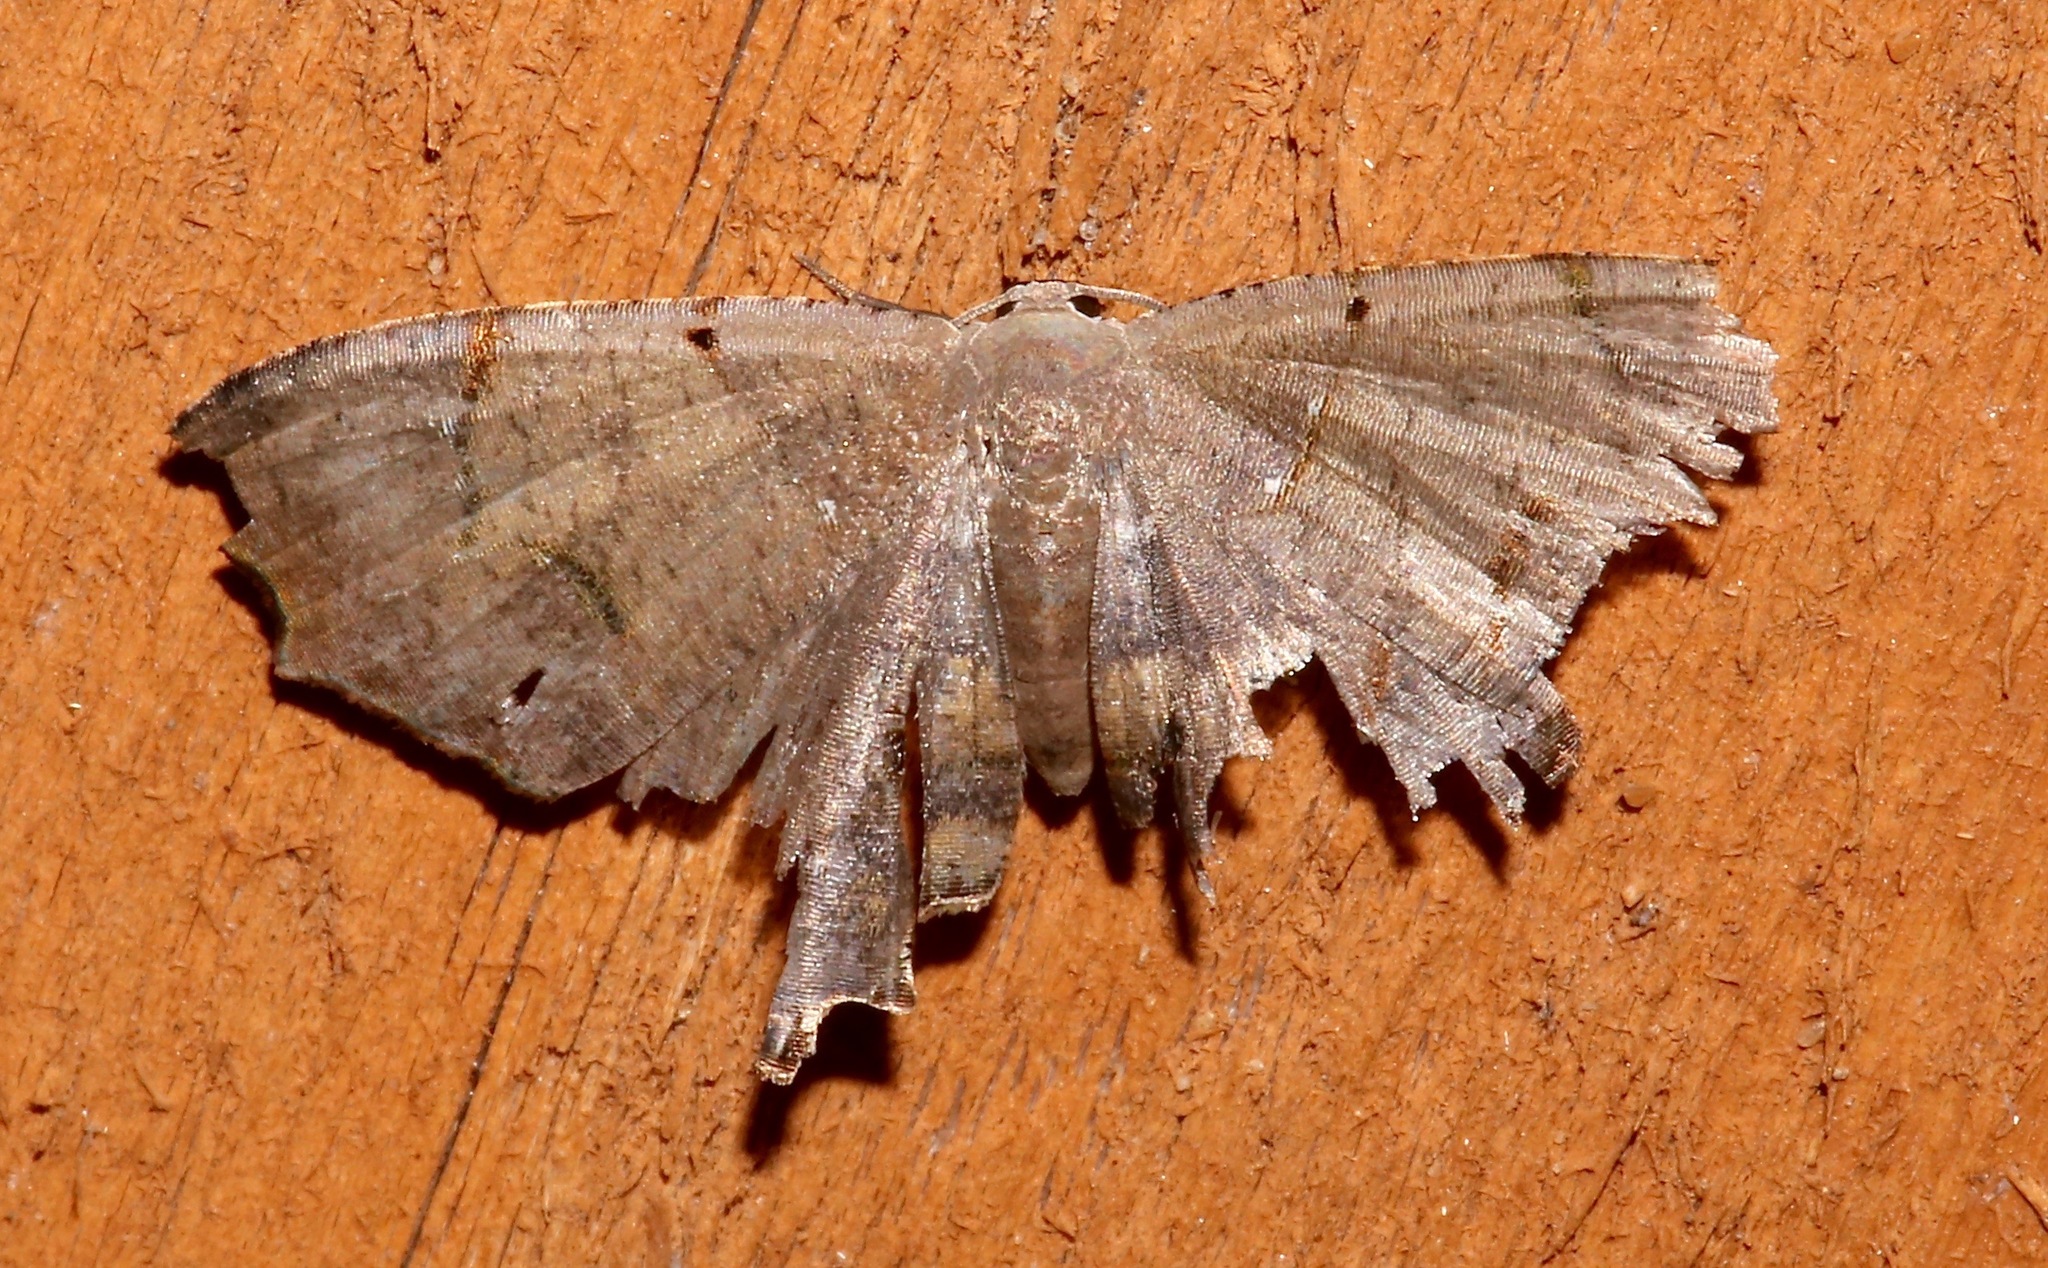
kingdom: Animalia
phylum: Arthropoda
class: Insecta
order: Lepidoptera
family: Uraniidae
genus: Trotorhombia
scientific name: Trotorhombia metachromata
